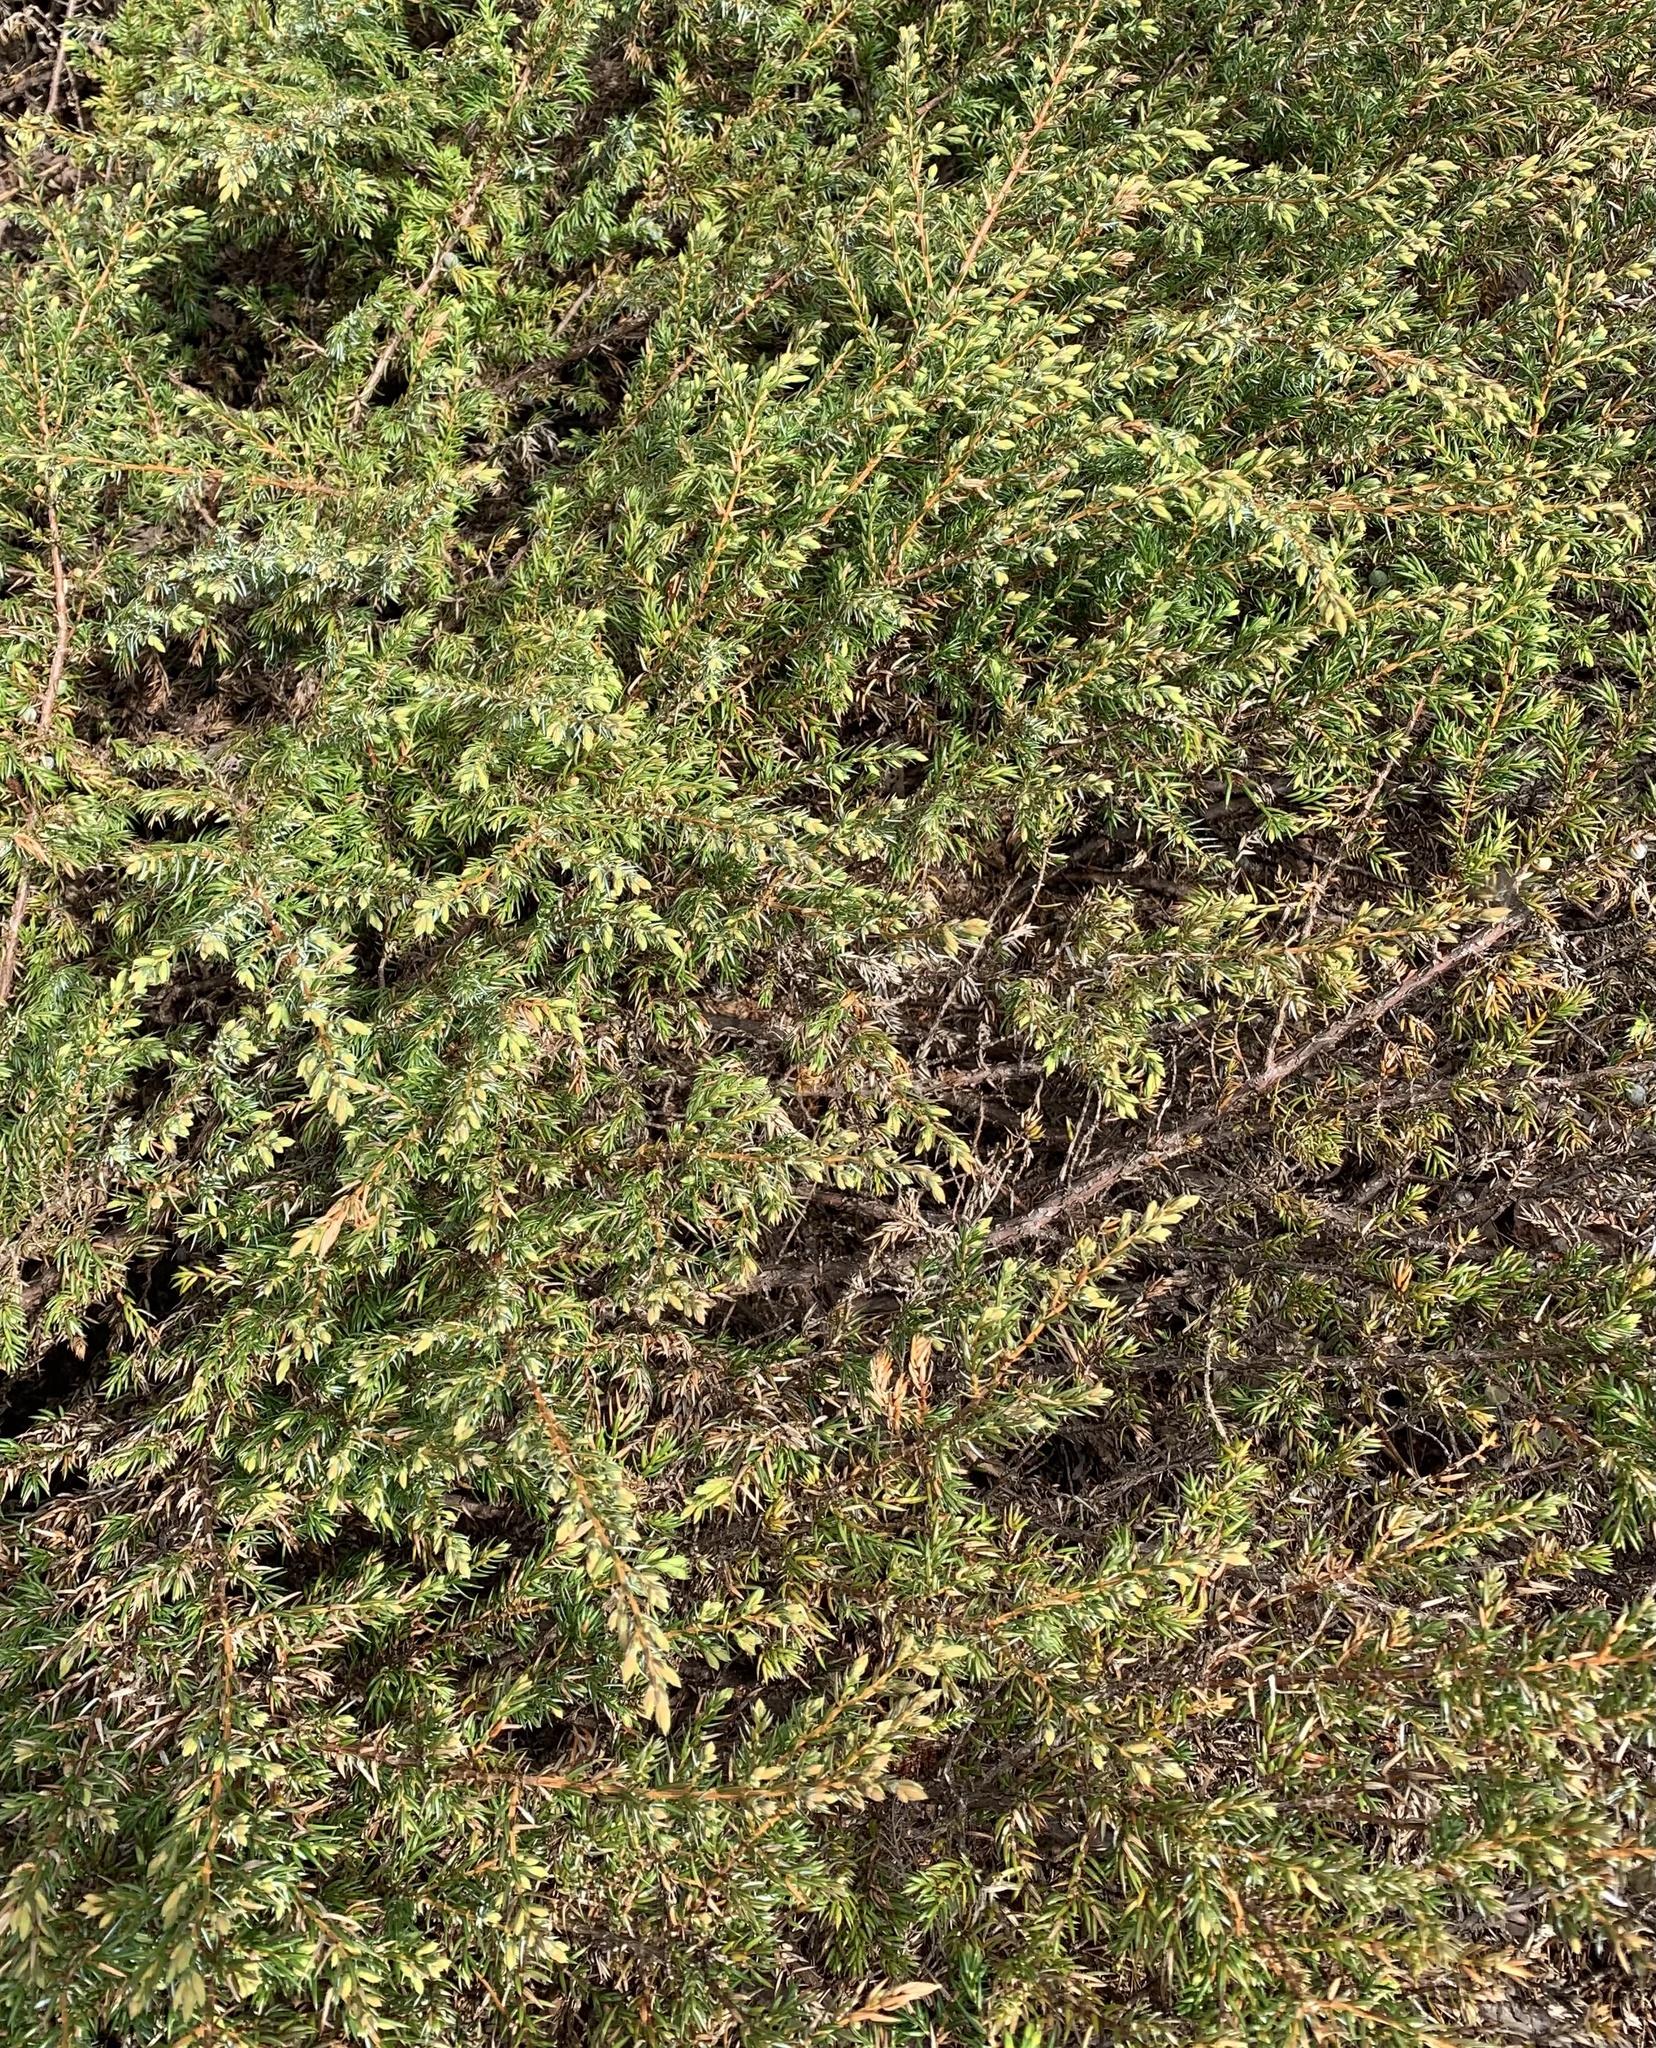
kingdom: Plantae
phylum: Tracheophyta
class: Pinopsida
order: Pinales
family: Cupressaceae
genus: Juniperus
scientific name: Juniperus communis
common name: Common juniper
